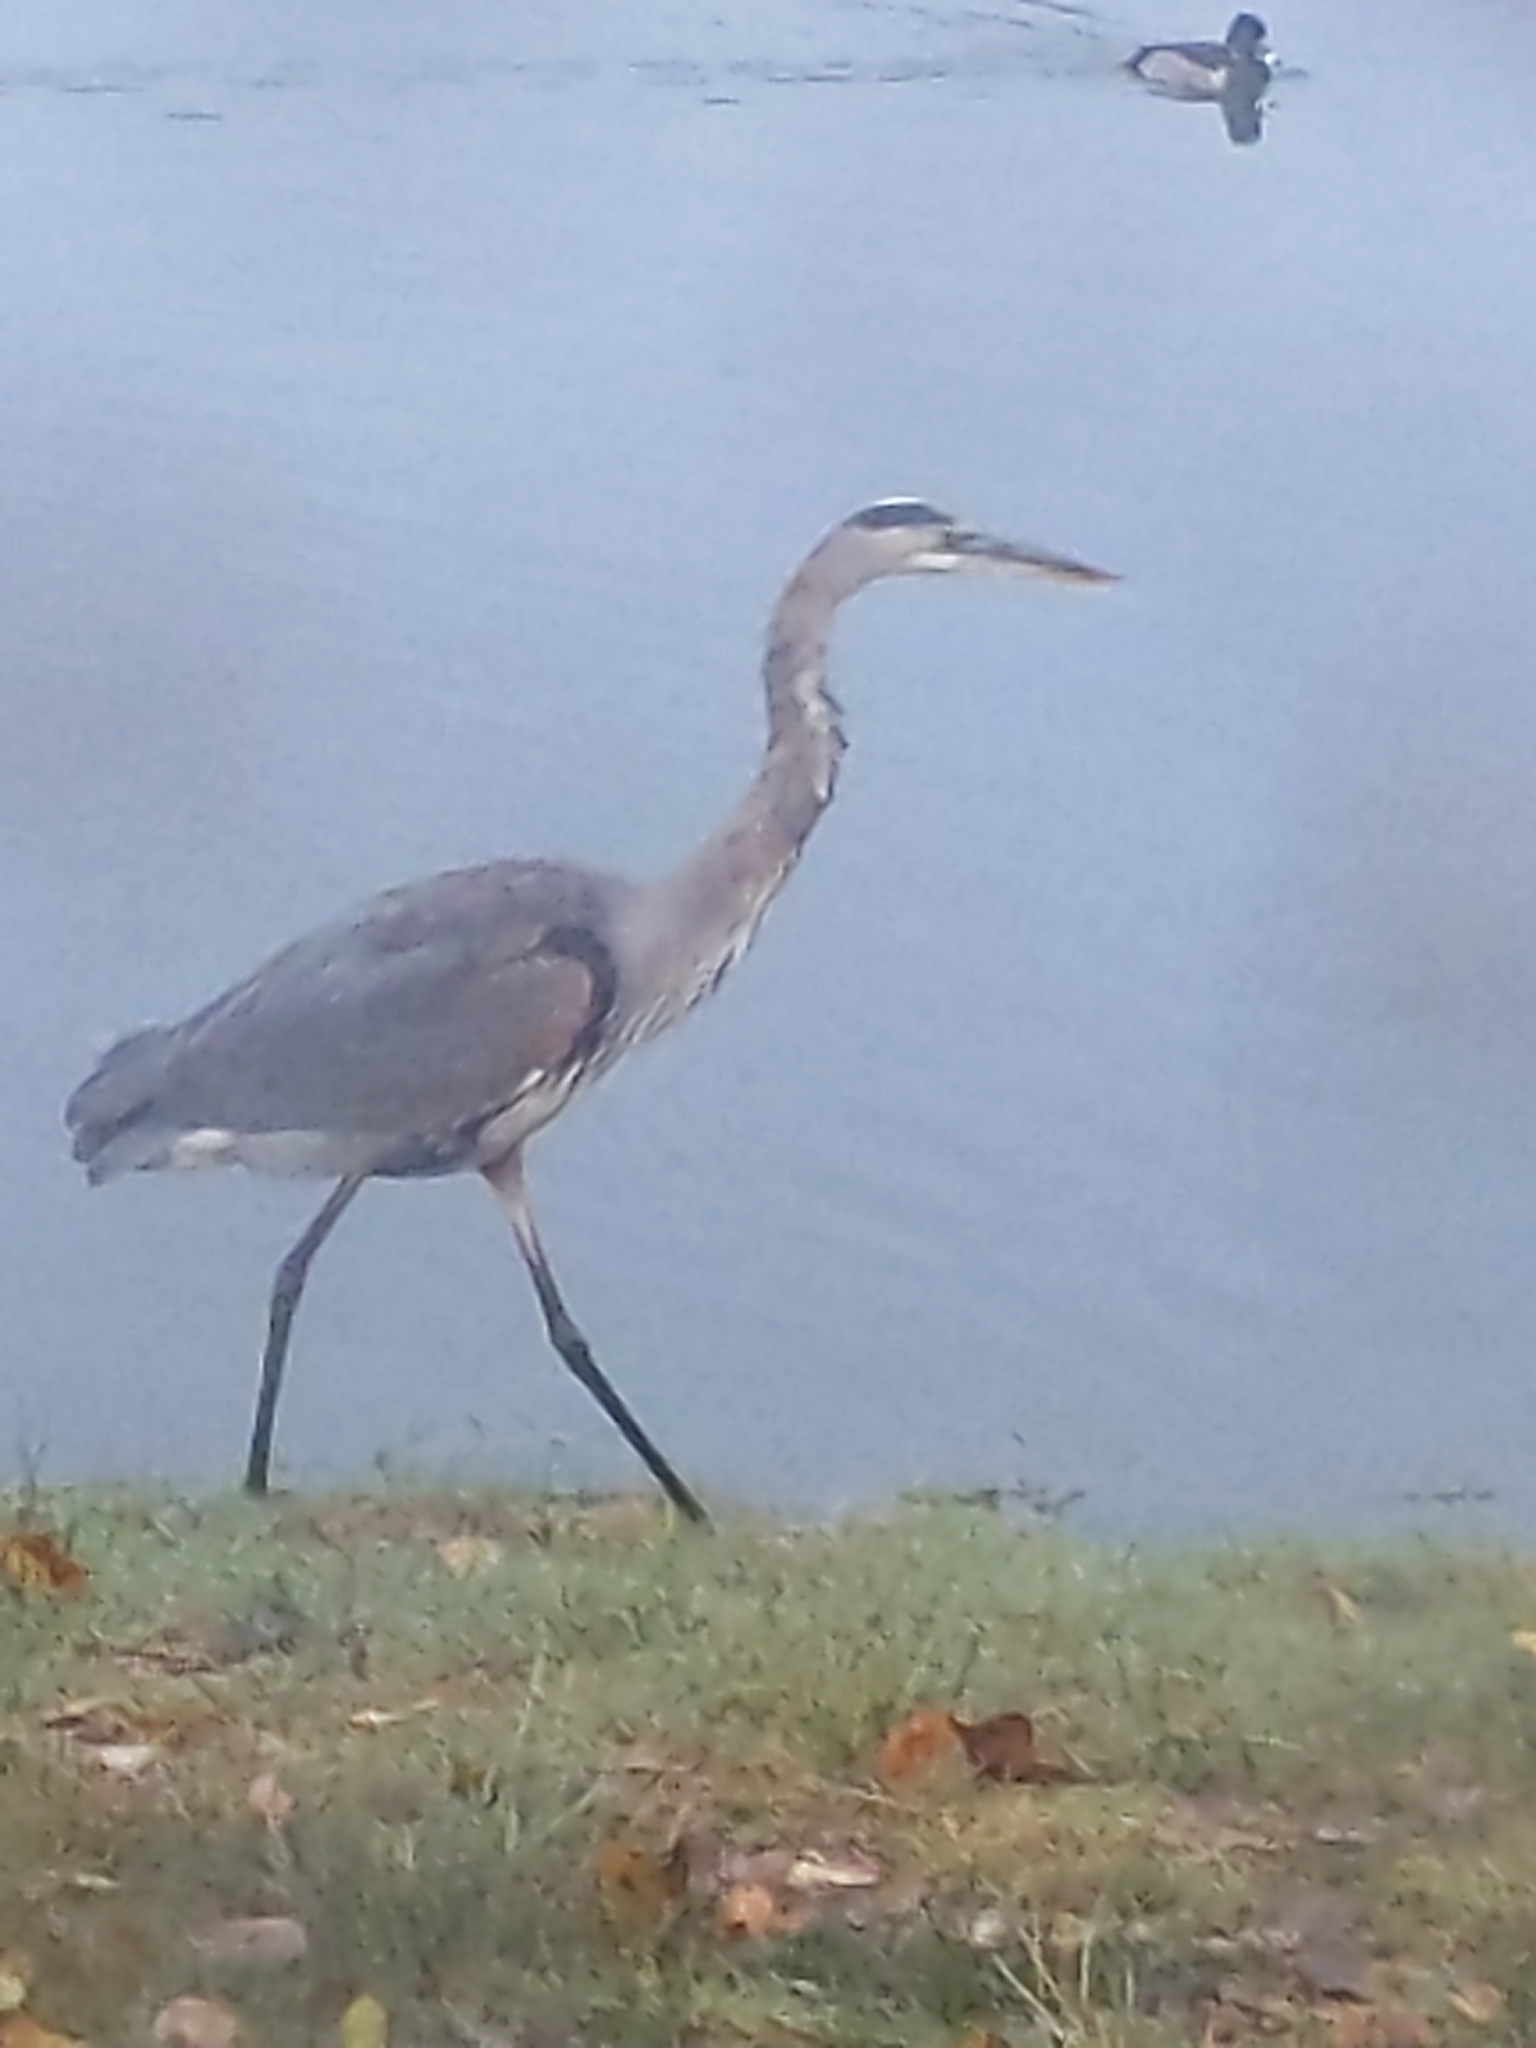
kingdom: Animalia
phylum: Chordata
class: Aves
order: Pelecaniformes
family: Ardeidae
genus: Ardea
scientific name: Ardea herodias
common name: Great blue heron
